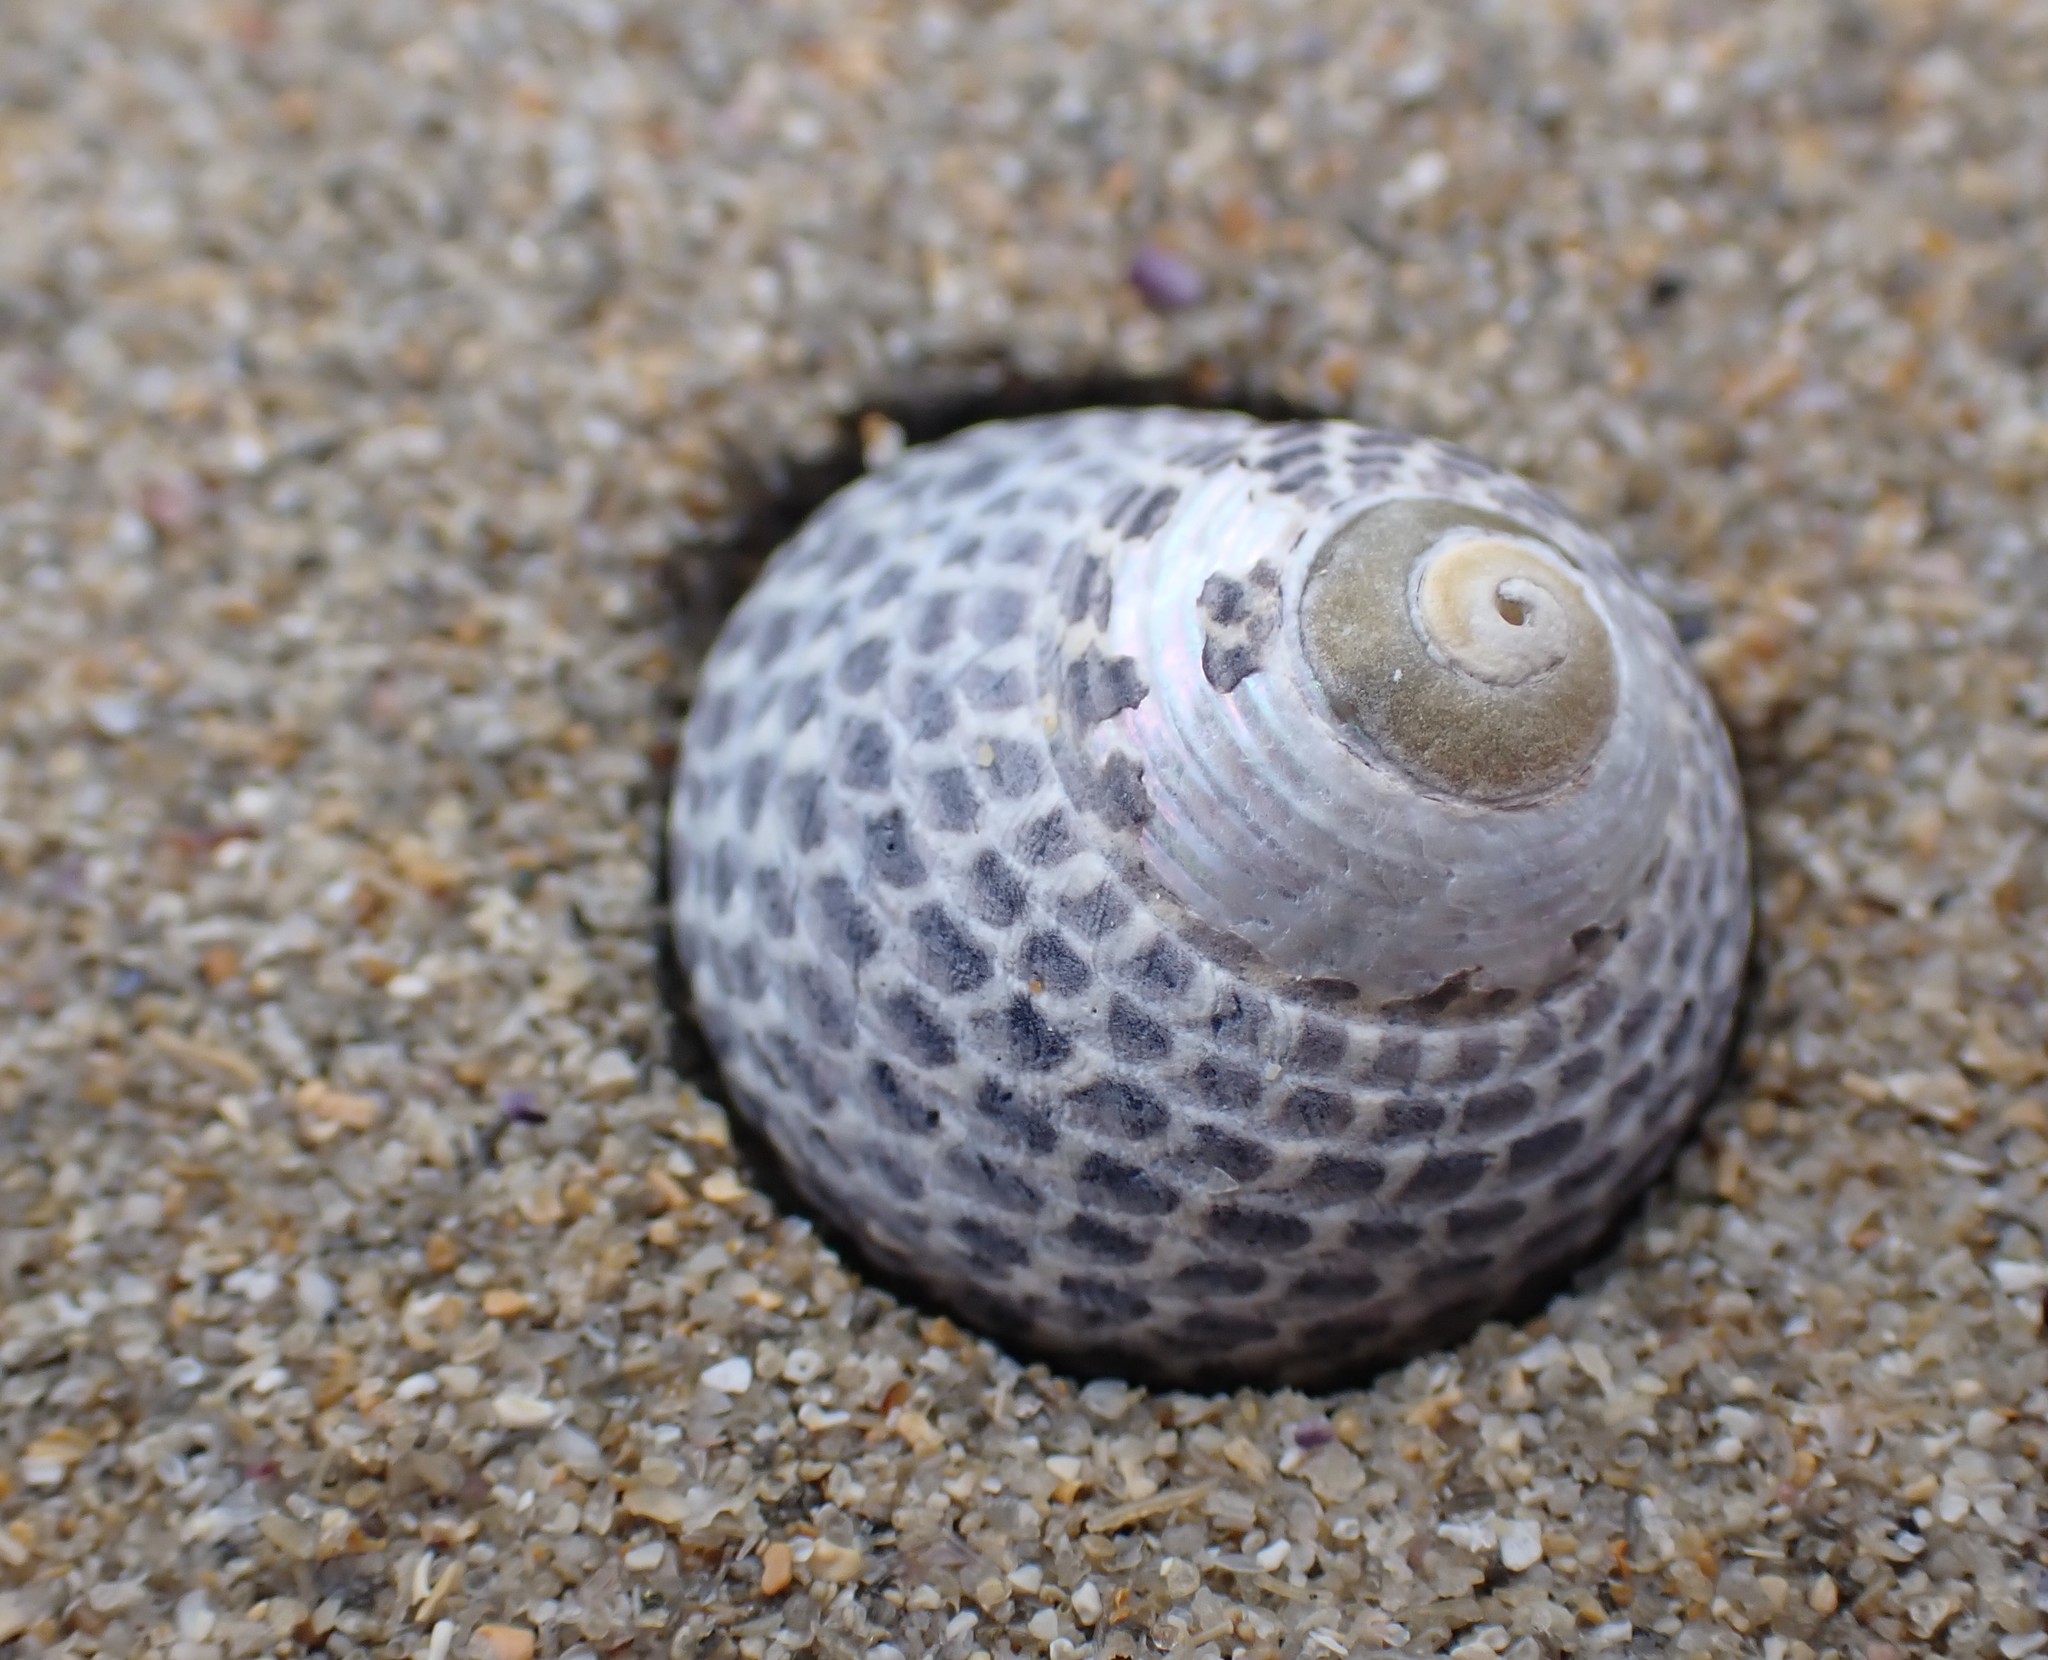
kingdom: Animalia
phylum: Mollusca
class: Gastropoda
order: Trochida
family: Trochidae
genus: Chlorodiloma
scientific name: Chlorodiloma adelaidae
